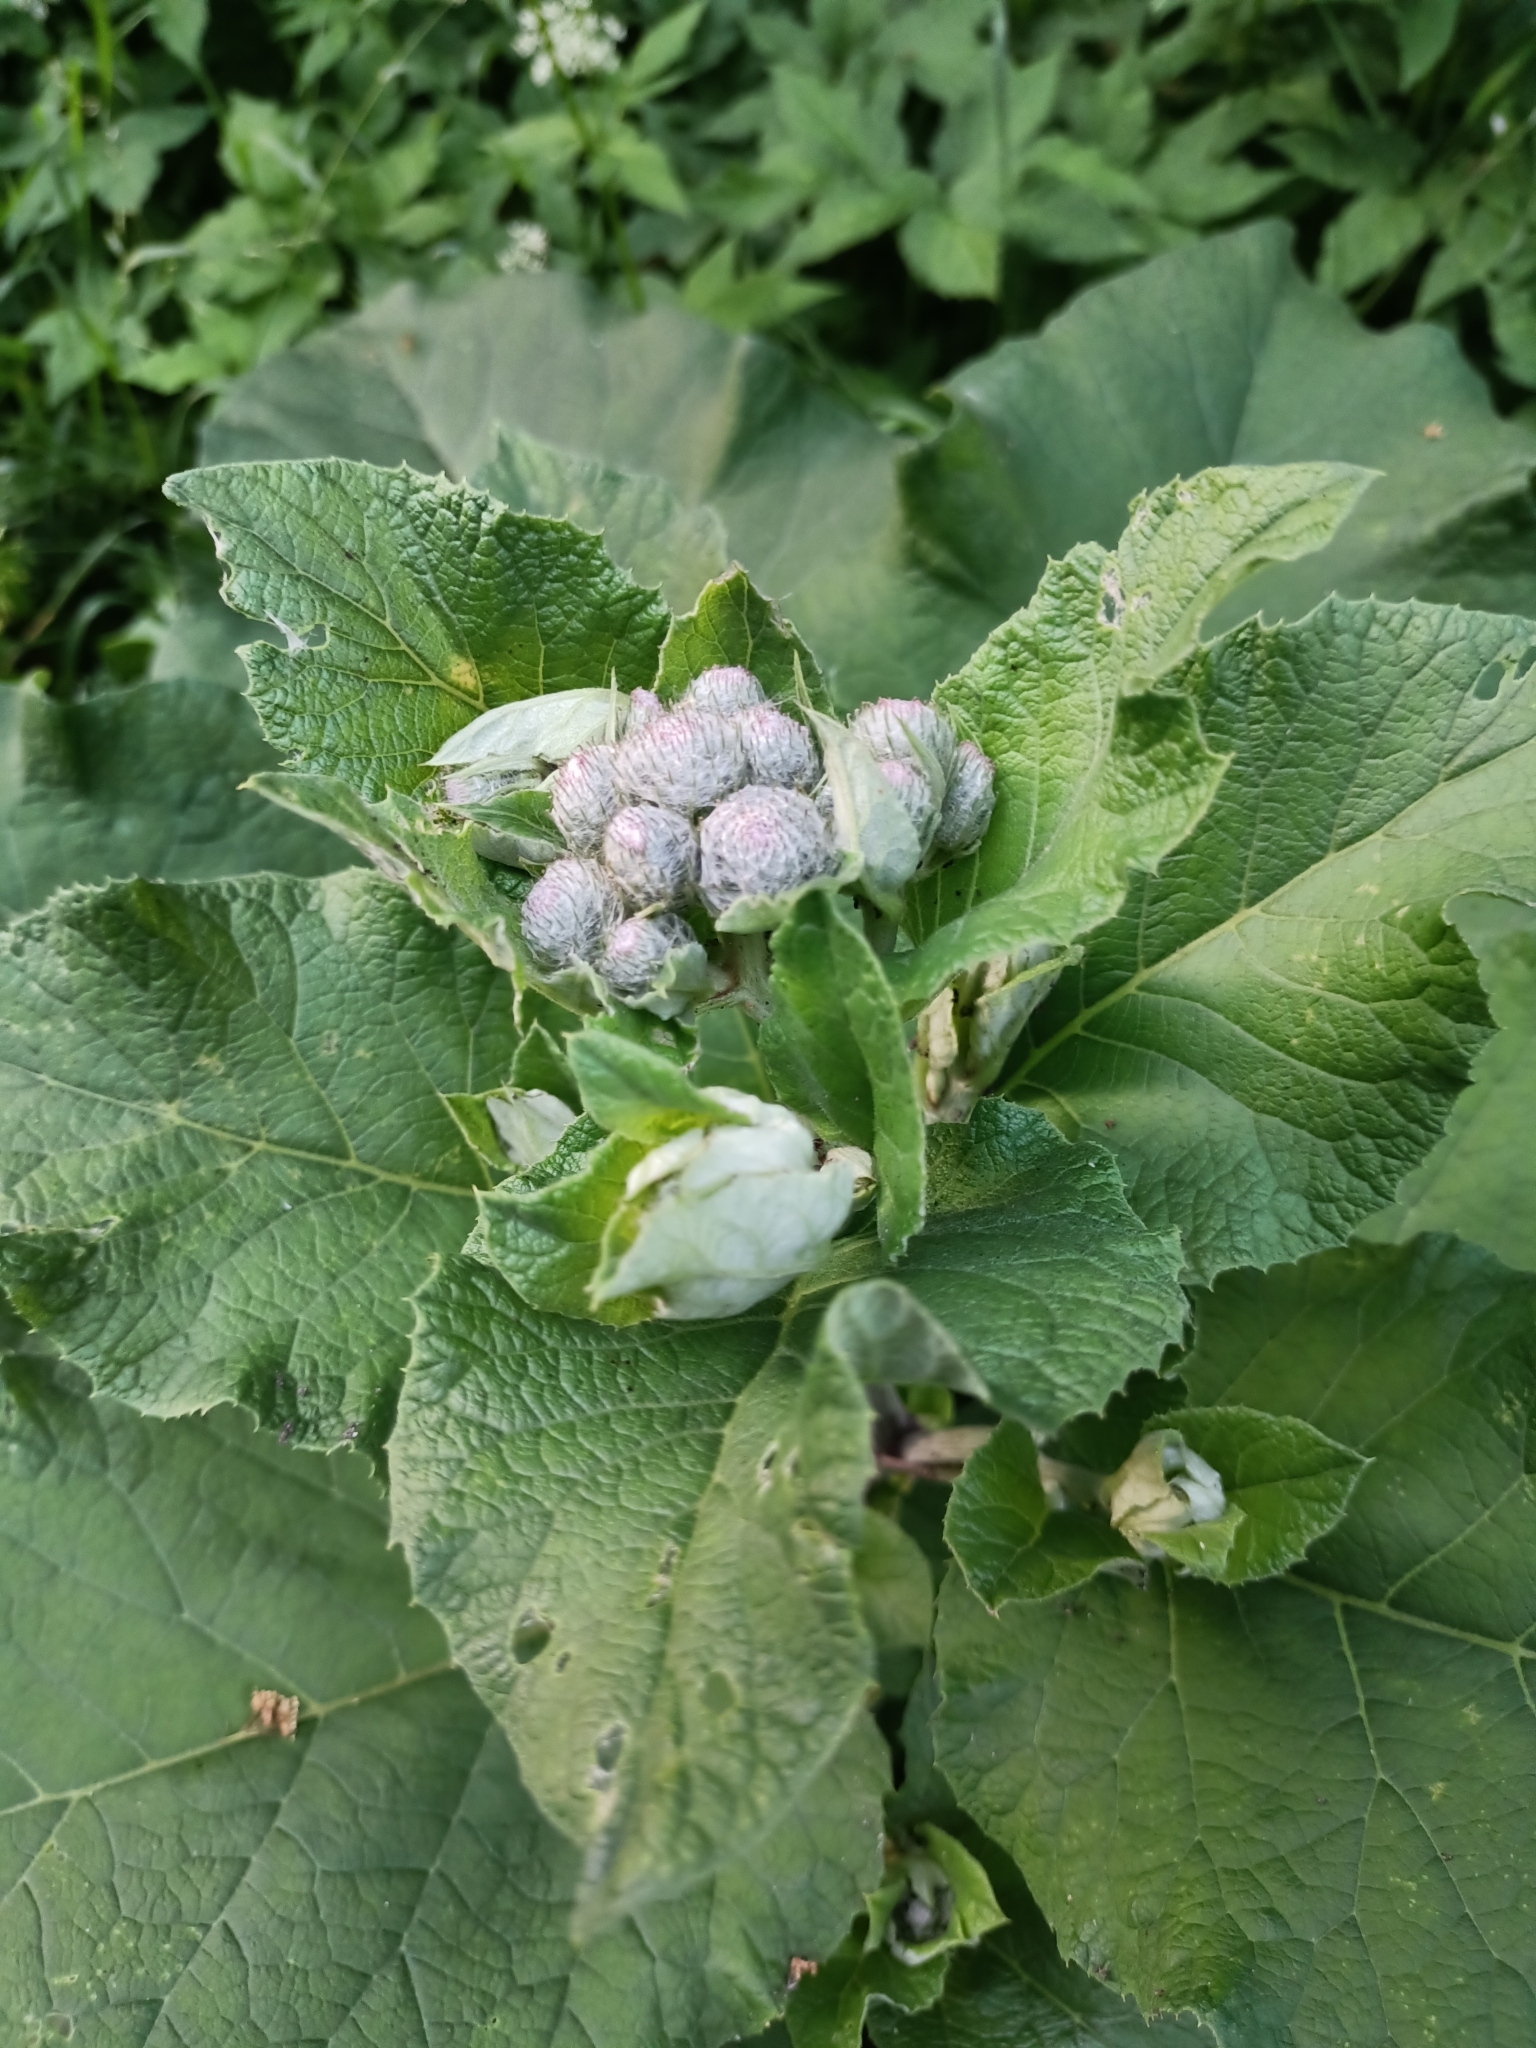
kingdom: Plantae
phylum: Tracheophyta
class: Magnoliopsida
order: Asterales
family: Asteraceae
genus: Arctium
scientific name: Arctium tomentosum
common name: Woolly burdock
